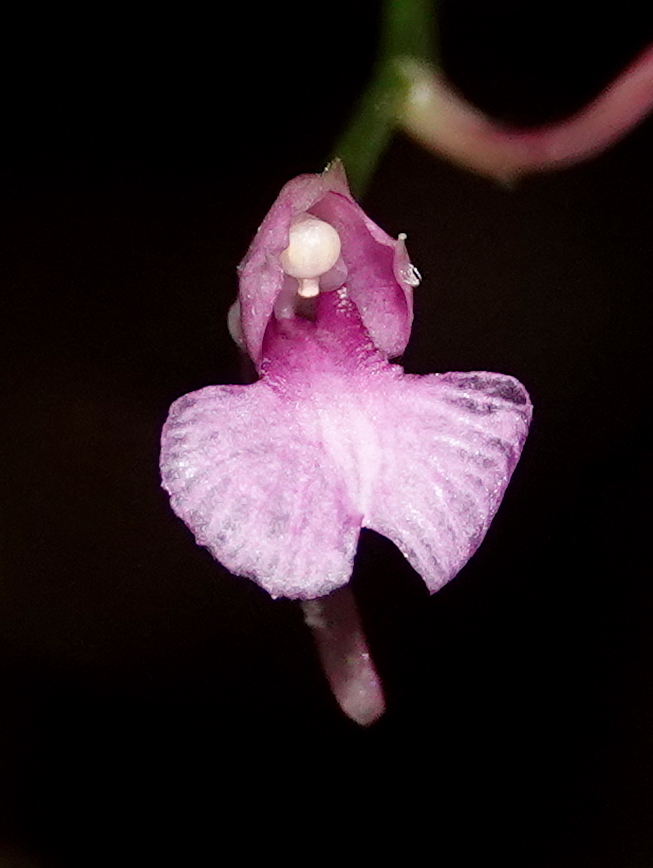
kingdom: Plantae
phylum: Tracheophyta
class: Liliopsida
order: Asparagales
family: Orchidaceae
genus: Comparettia
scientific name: Comparettia falcata
